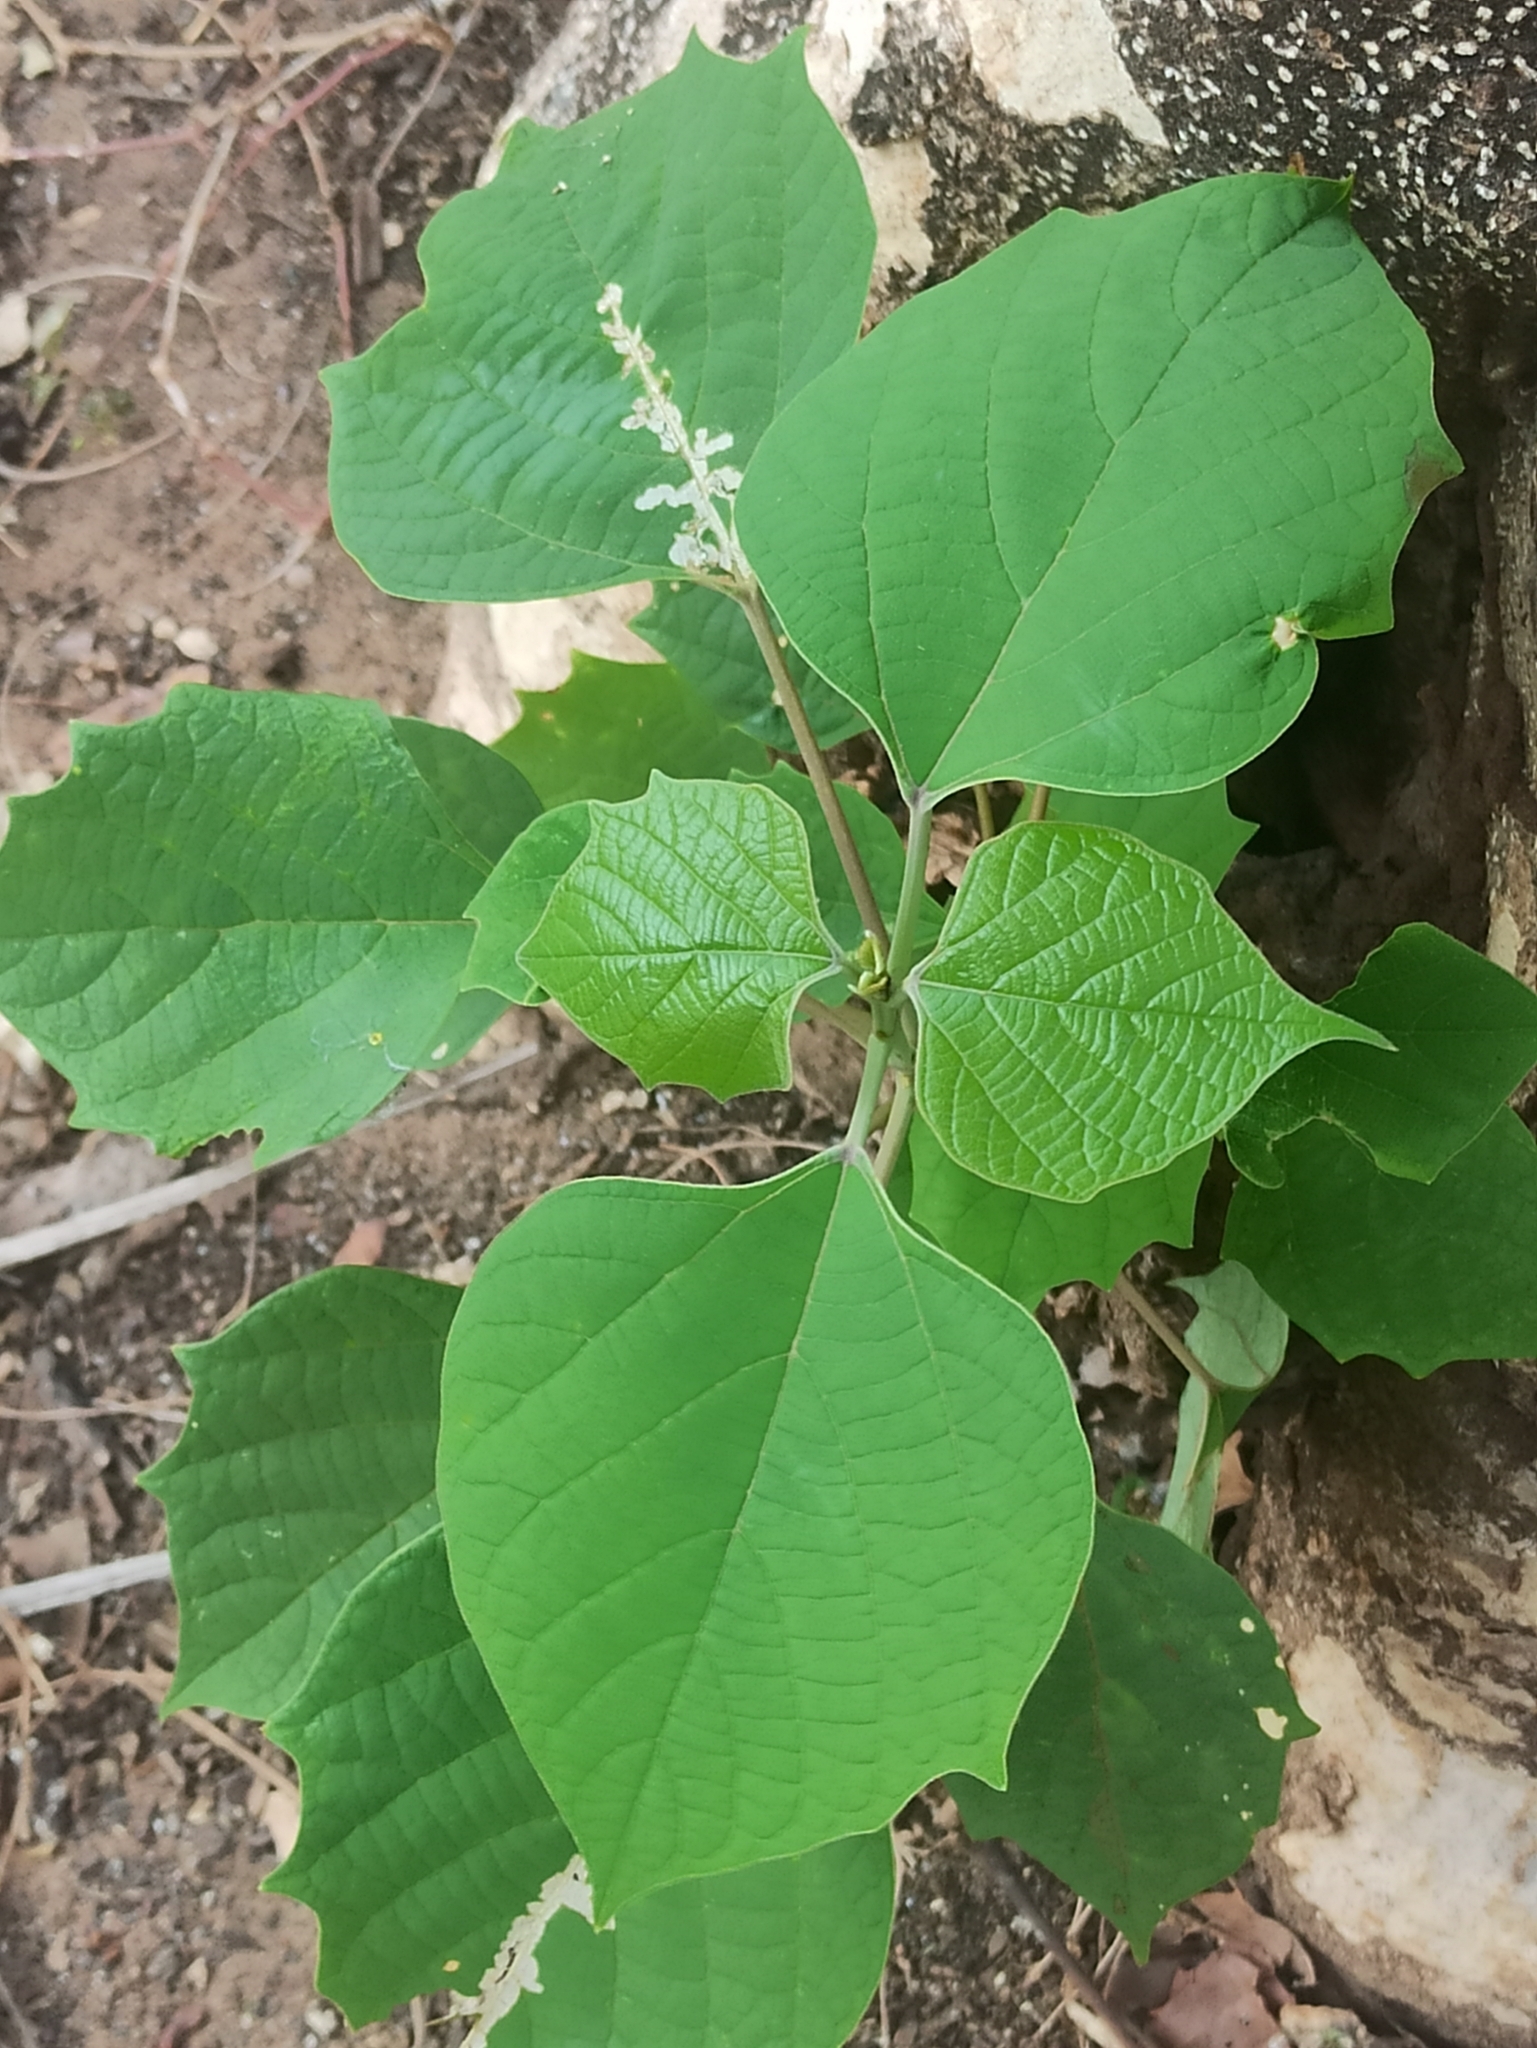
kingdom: Plantae
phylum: Tracheophyta
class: Magnoliopsida
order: Lamiales
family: Lamiaceae
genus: Gmelina
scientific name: Gmelina arborea
